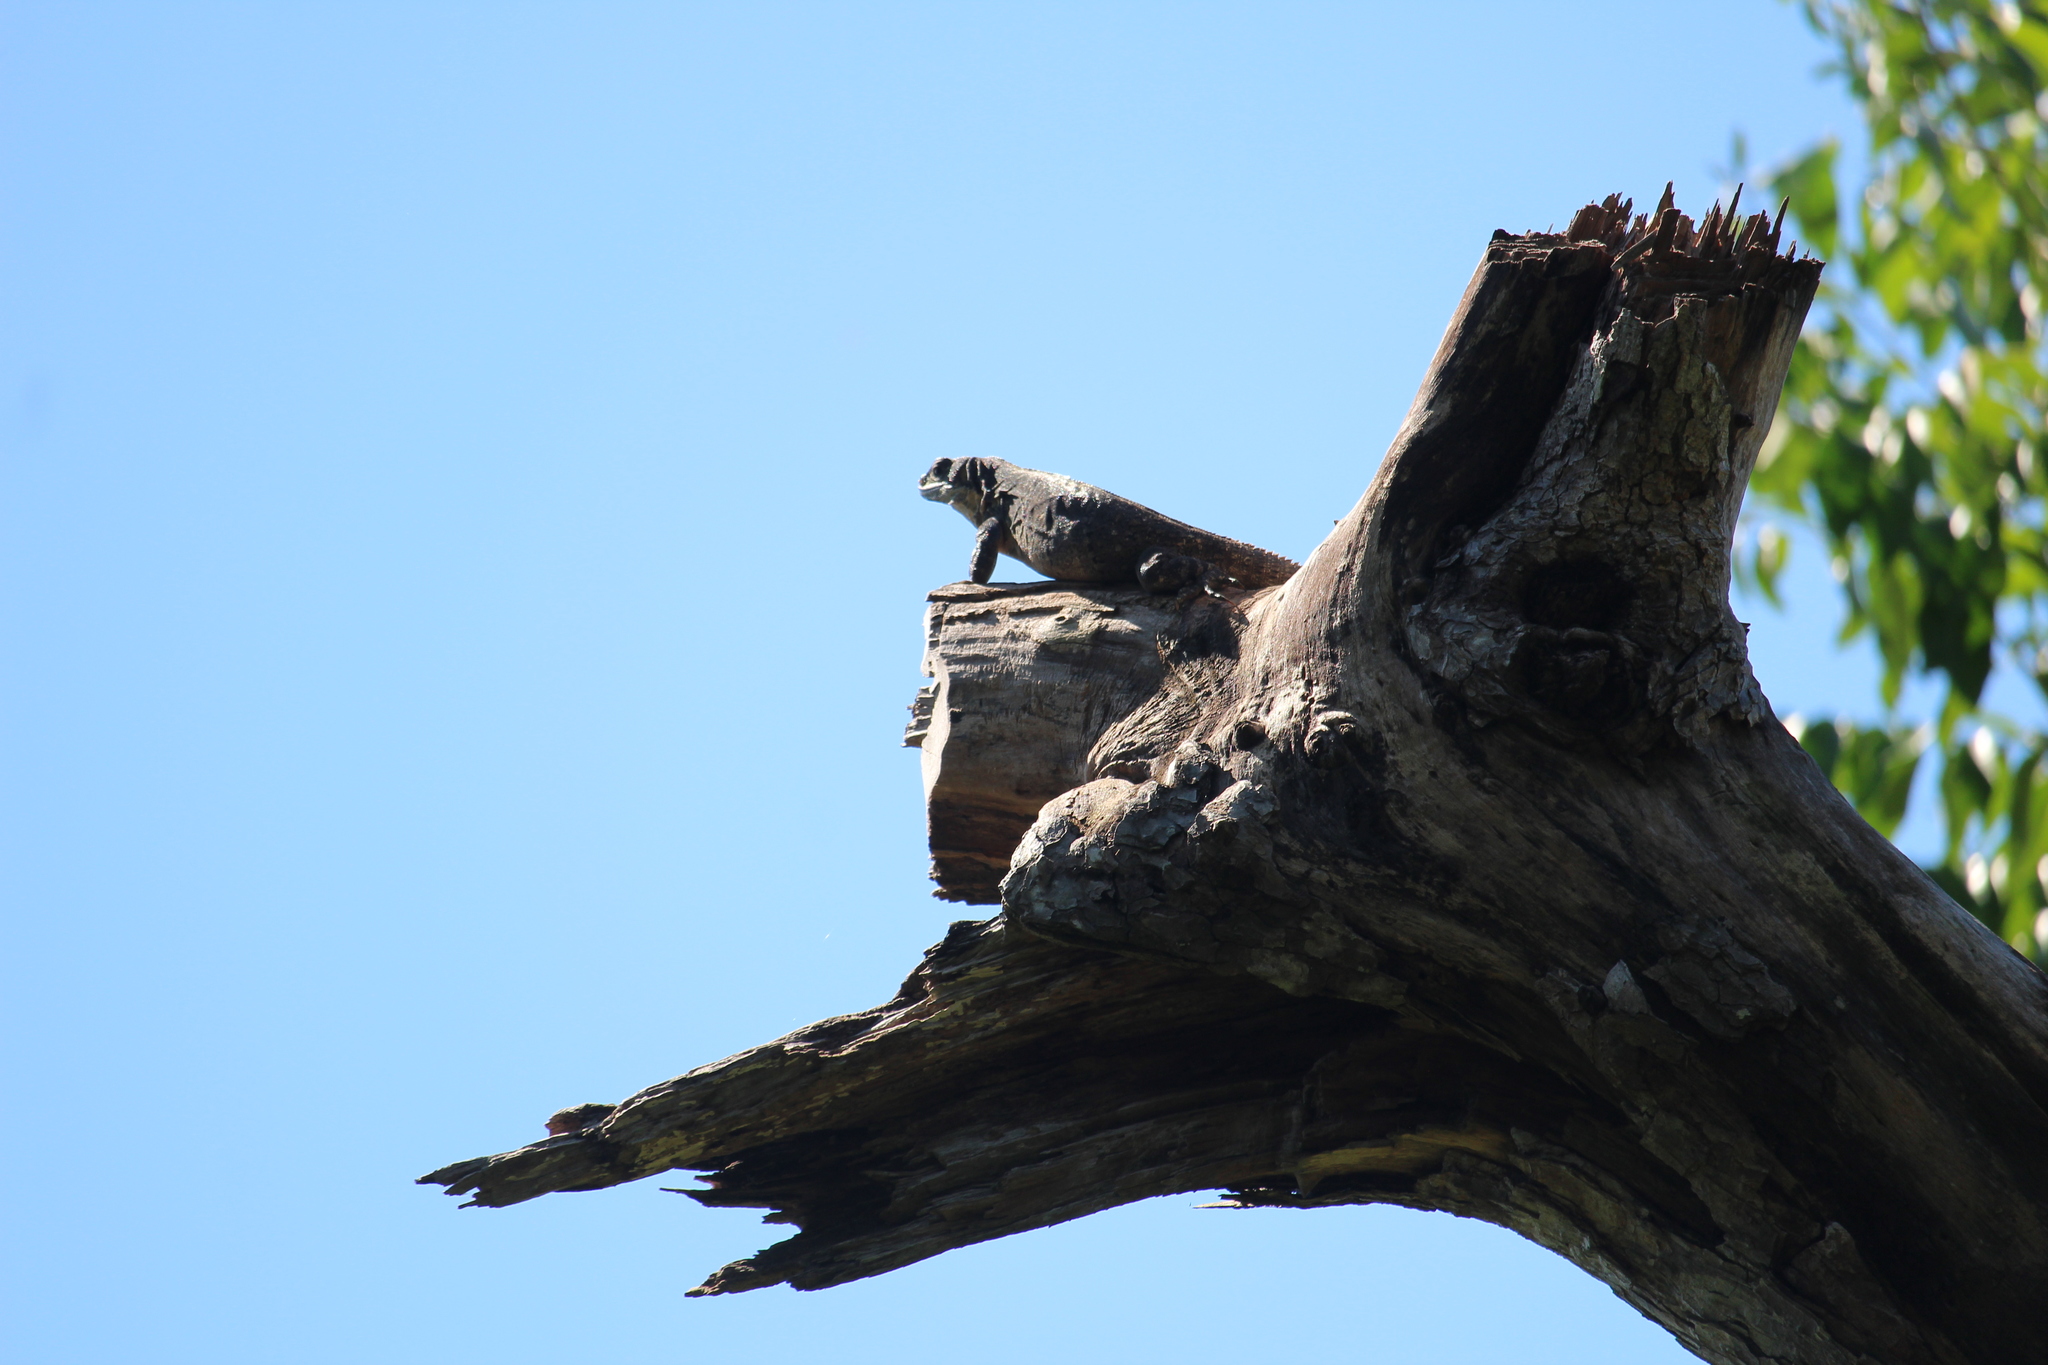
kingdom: Animalia
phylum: Chordata
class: Squamata
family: Iguanidae
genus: Ctenosaura
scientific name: Ctenosaura similis
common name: Black spiny-tailed iguana
